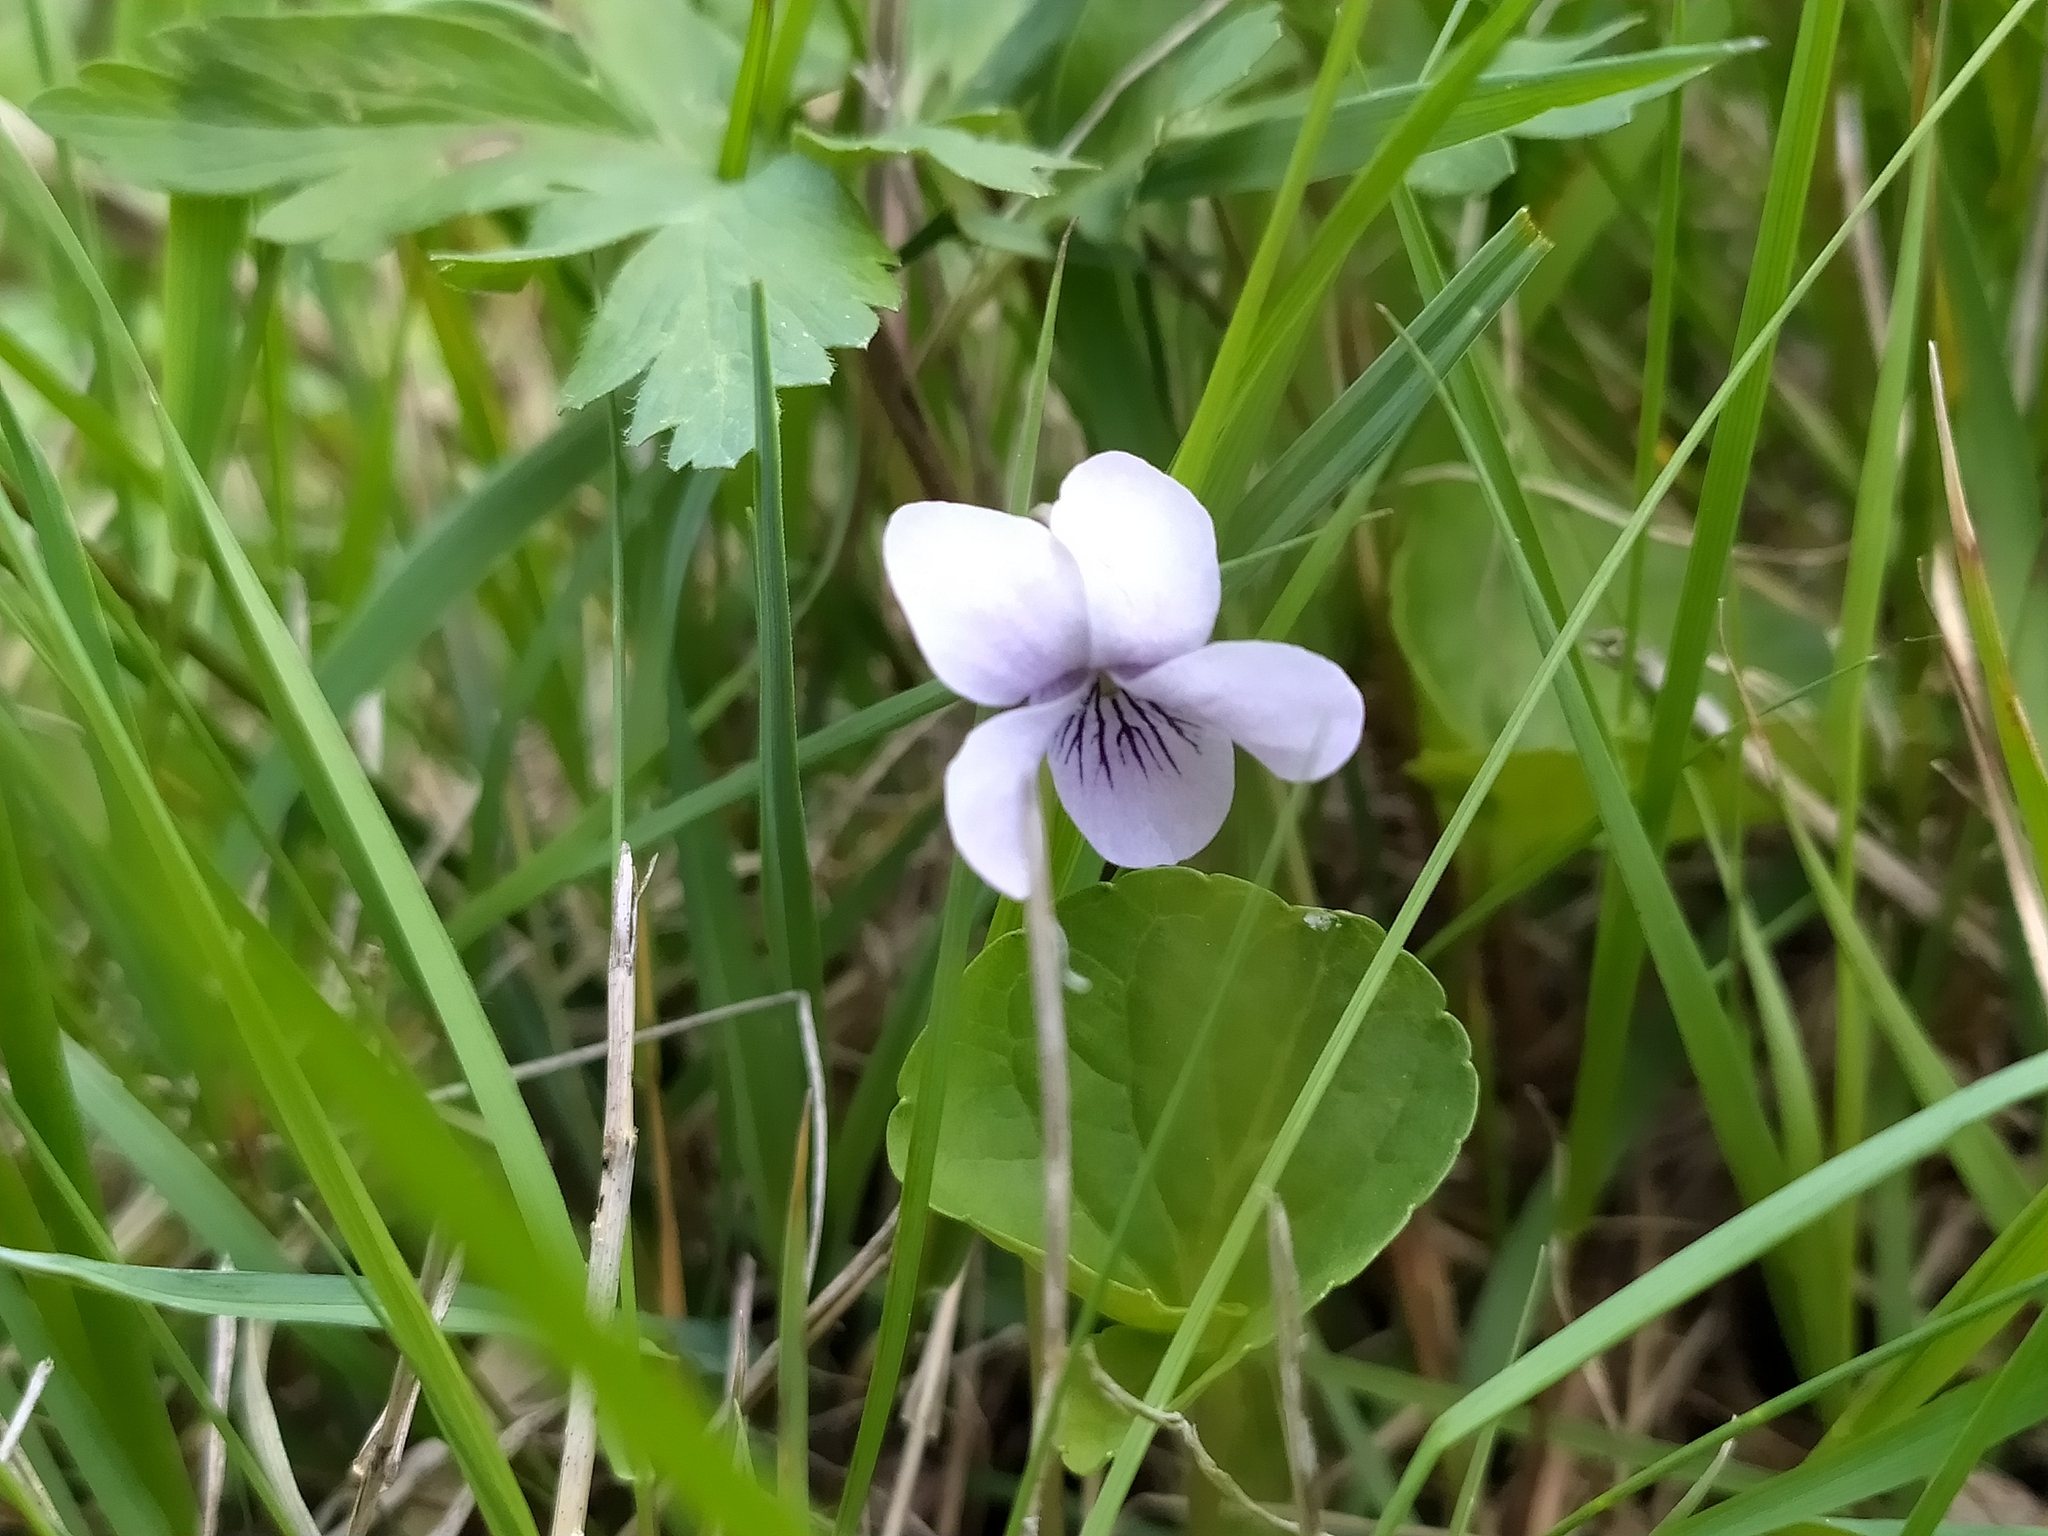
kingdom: Plantae
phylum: Tracheophyta
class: Magnoliopsida
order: Malpighiales
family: Violaceae
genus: Viola
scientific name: Viola palustris
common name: Marsh violet
